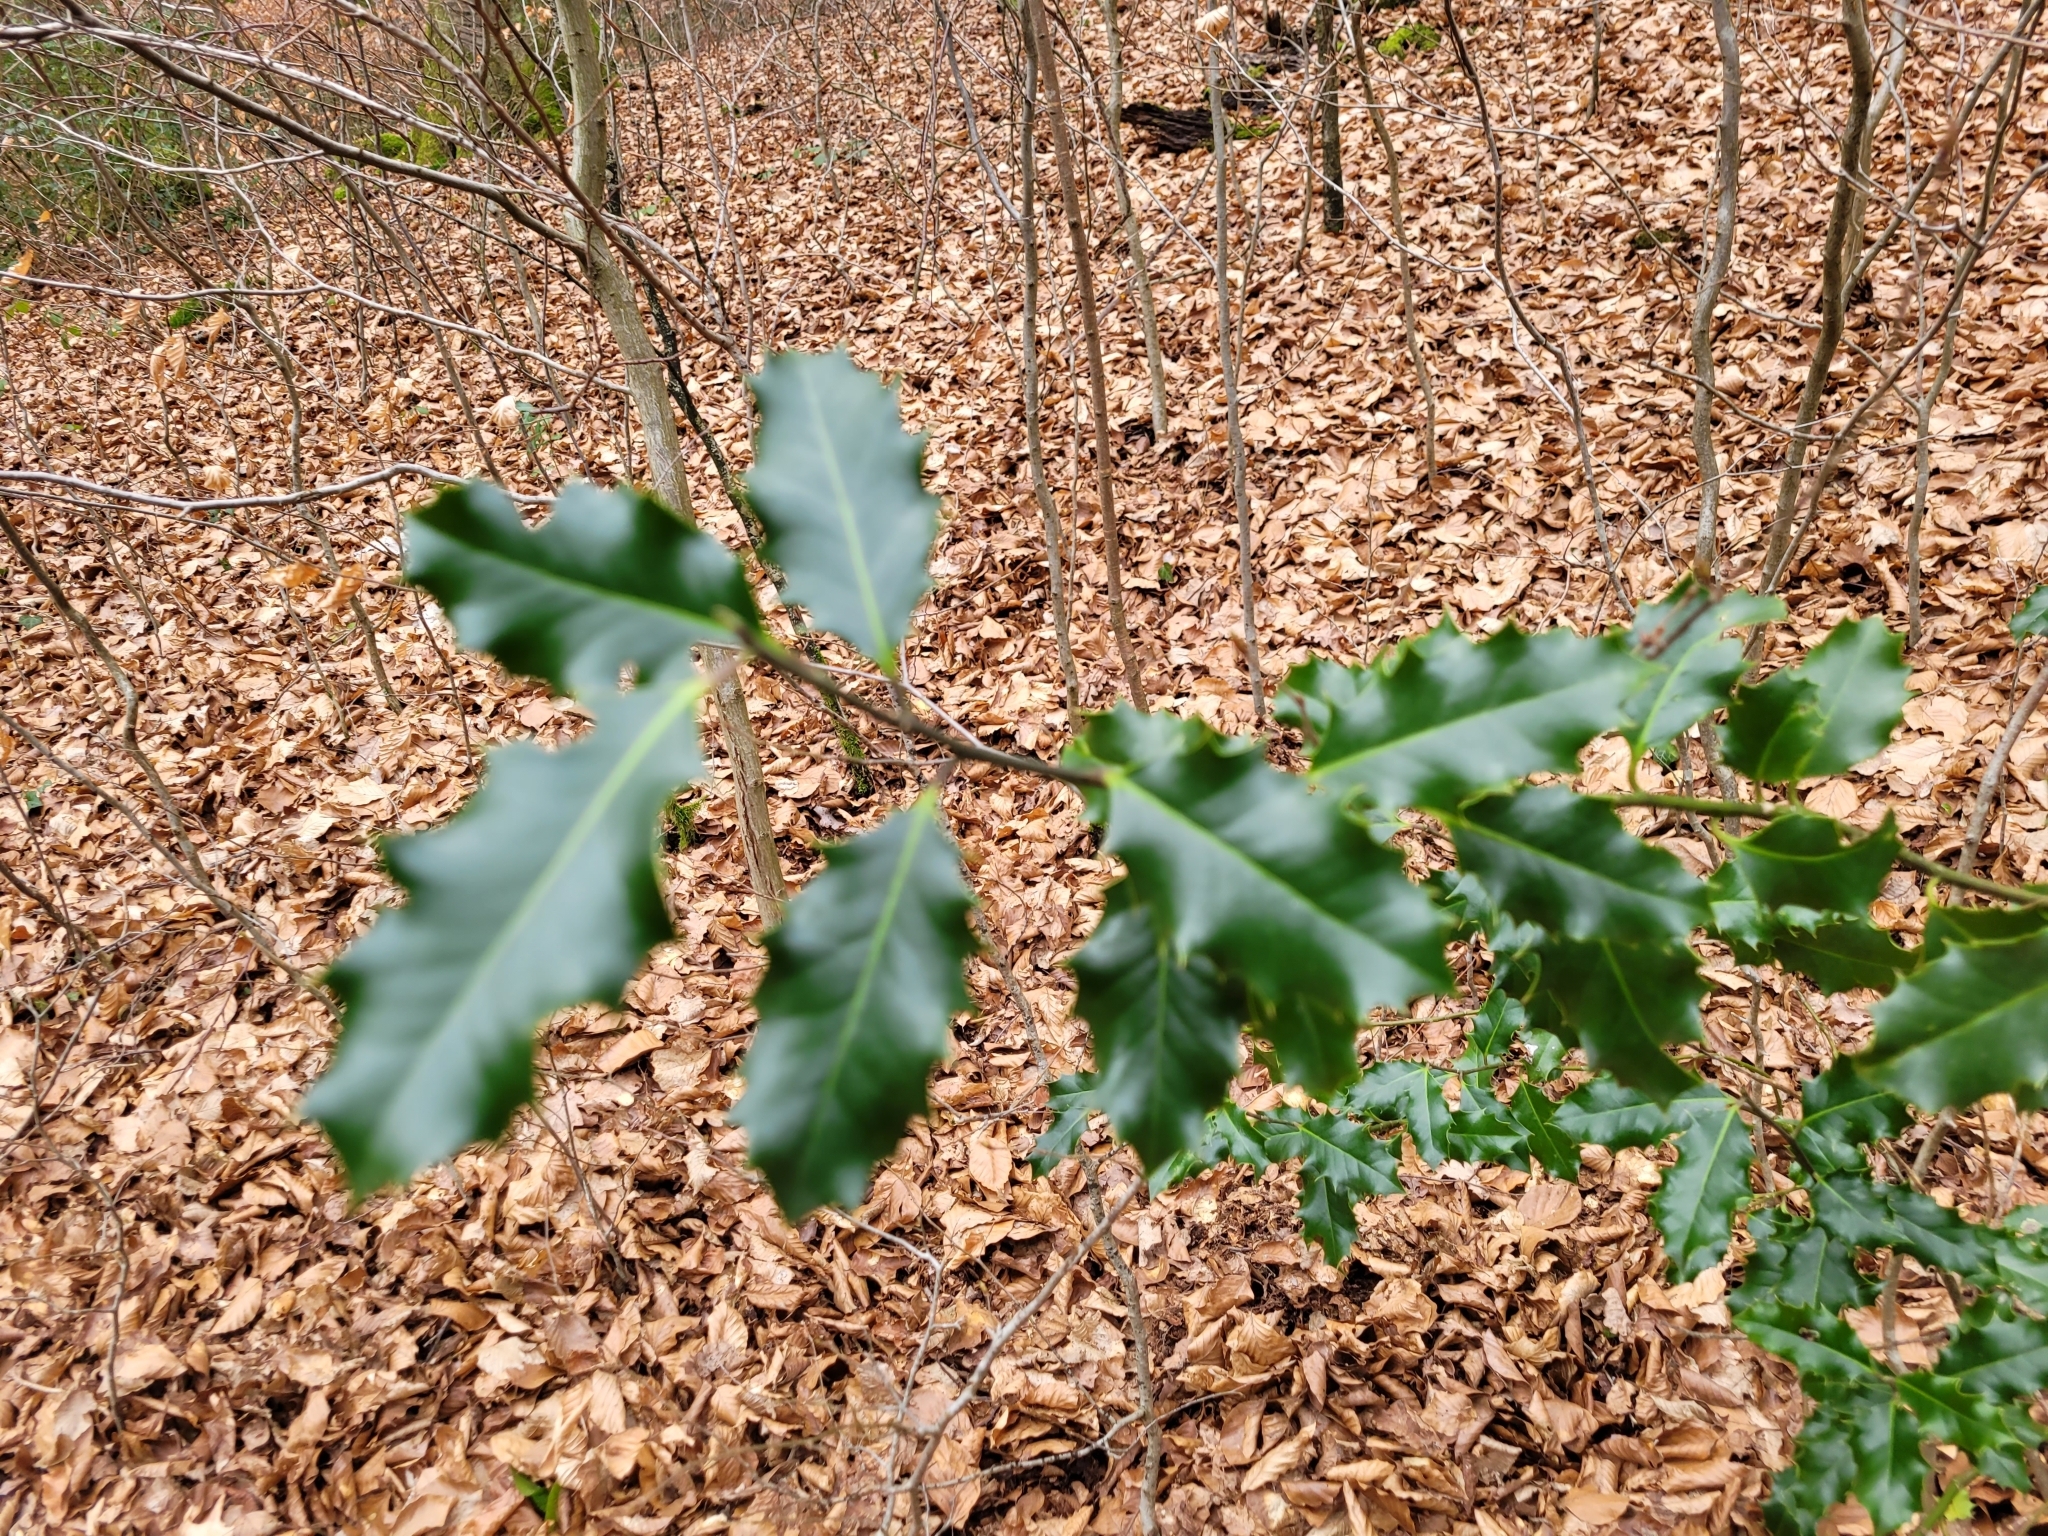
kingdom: Plantae
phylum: Tracheophyta
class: Magnoliopsida
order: Aquifoliales
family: Aquifoliaceae
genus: Ilex
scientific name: Ilex aquifolium
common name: English holly
